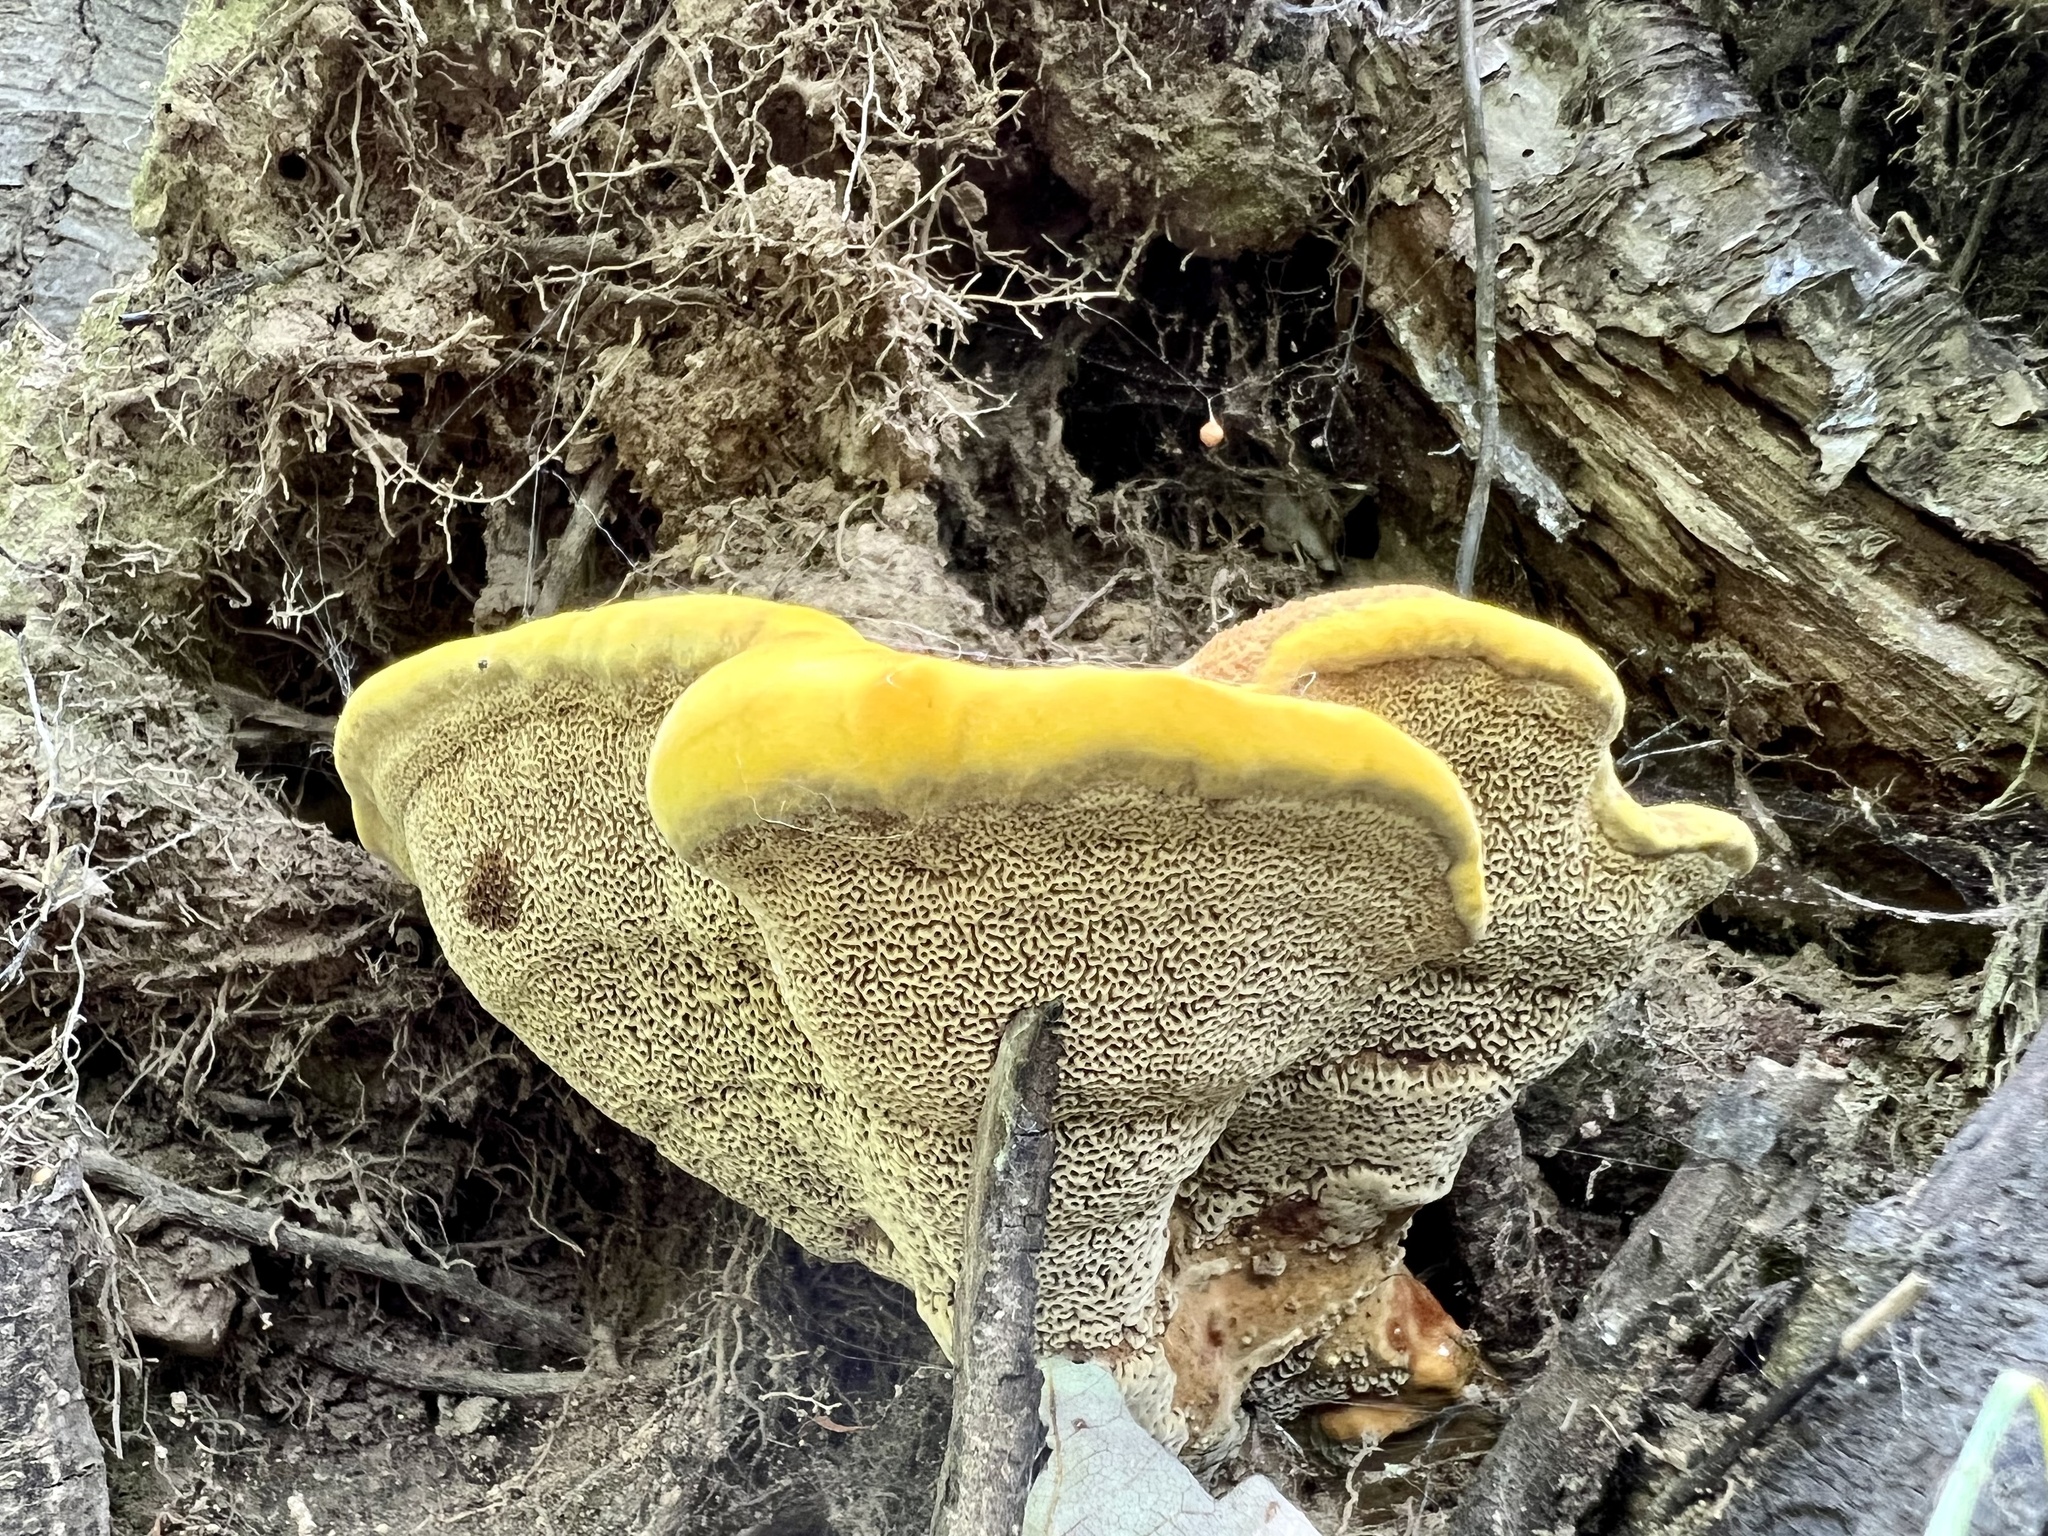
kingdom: Fungi
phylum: Basidiomycota
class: Agaricomycetes
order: Polyporales
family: Laetiporaceae
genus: Phaeolus
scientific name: Phaeolus schweinitzii
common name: Dyer's mazegill
